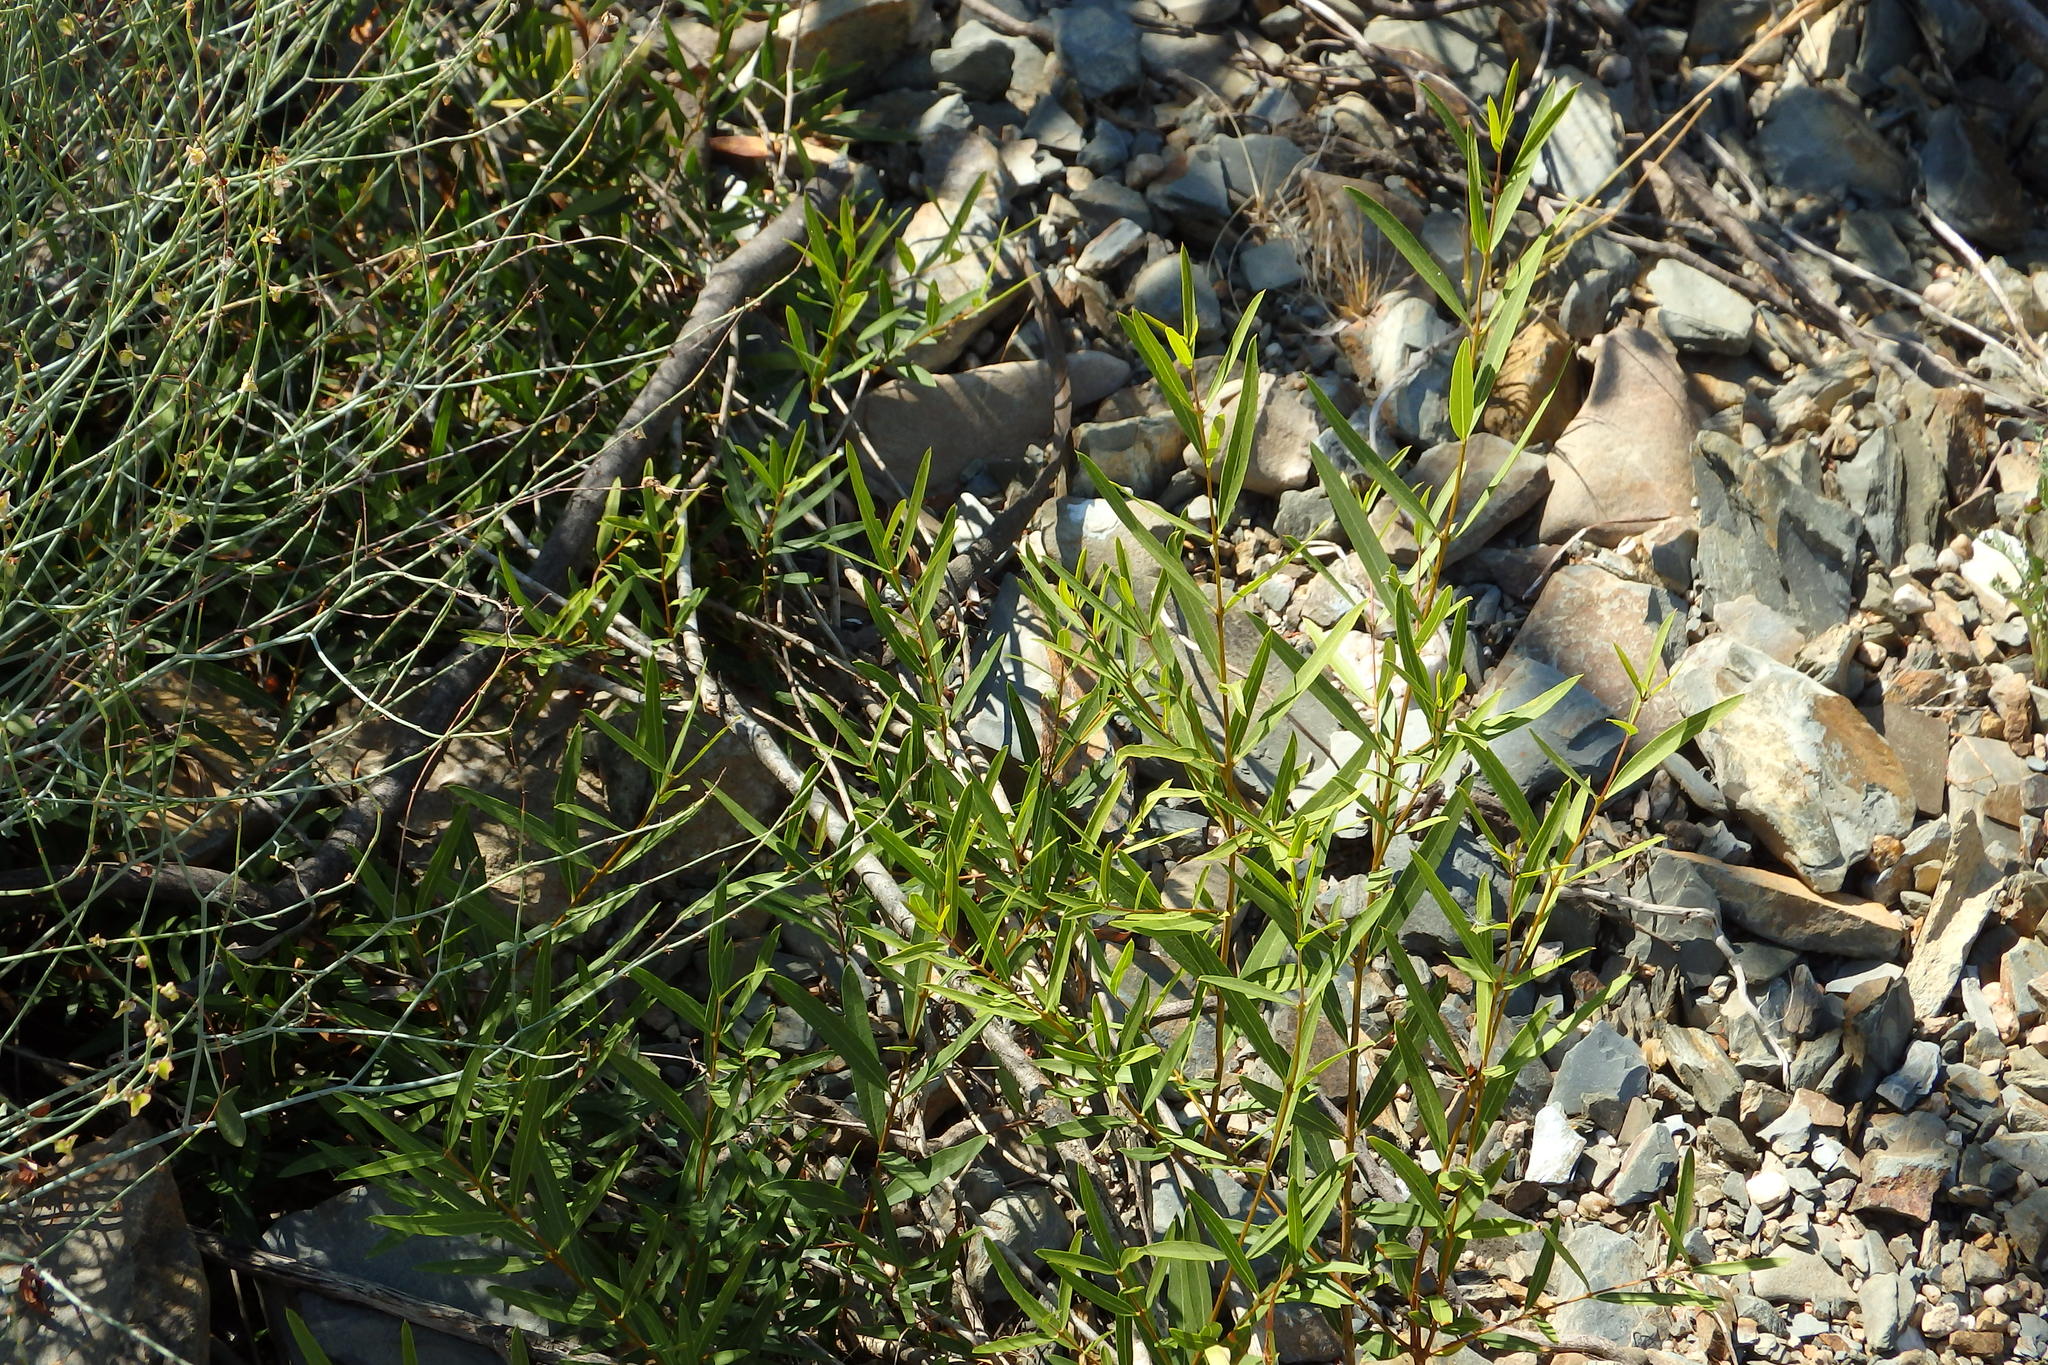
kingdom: Plantae
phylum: Tracheophyta
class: Magnoliopsida
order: Lamiales
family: Oleaceae
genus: Phillyrea
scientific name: Phillyrea angustifolia
